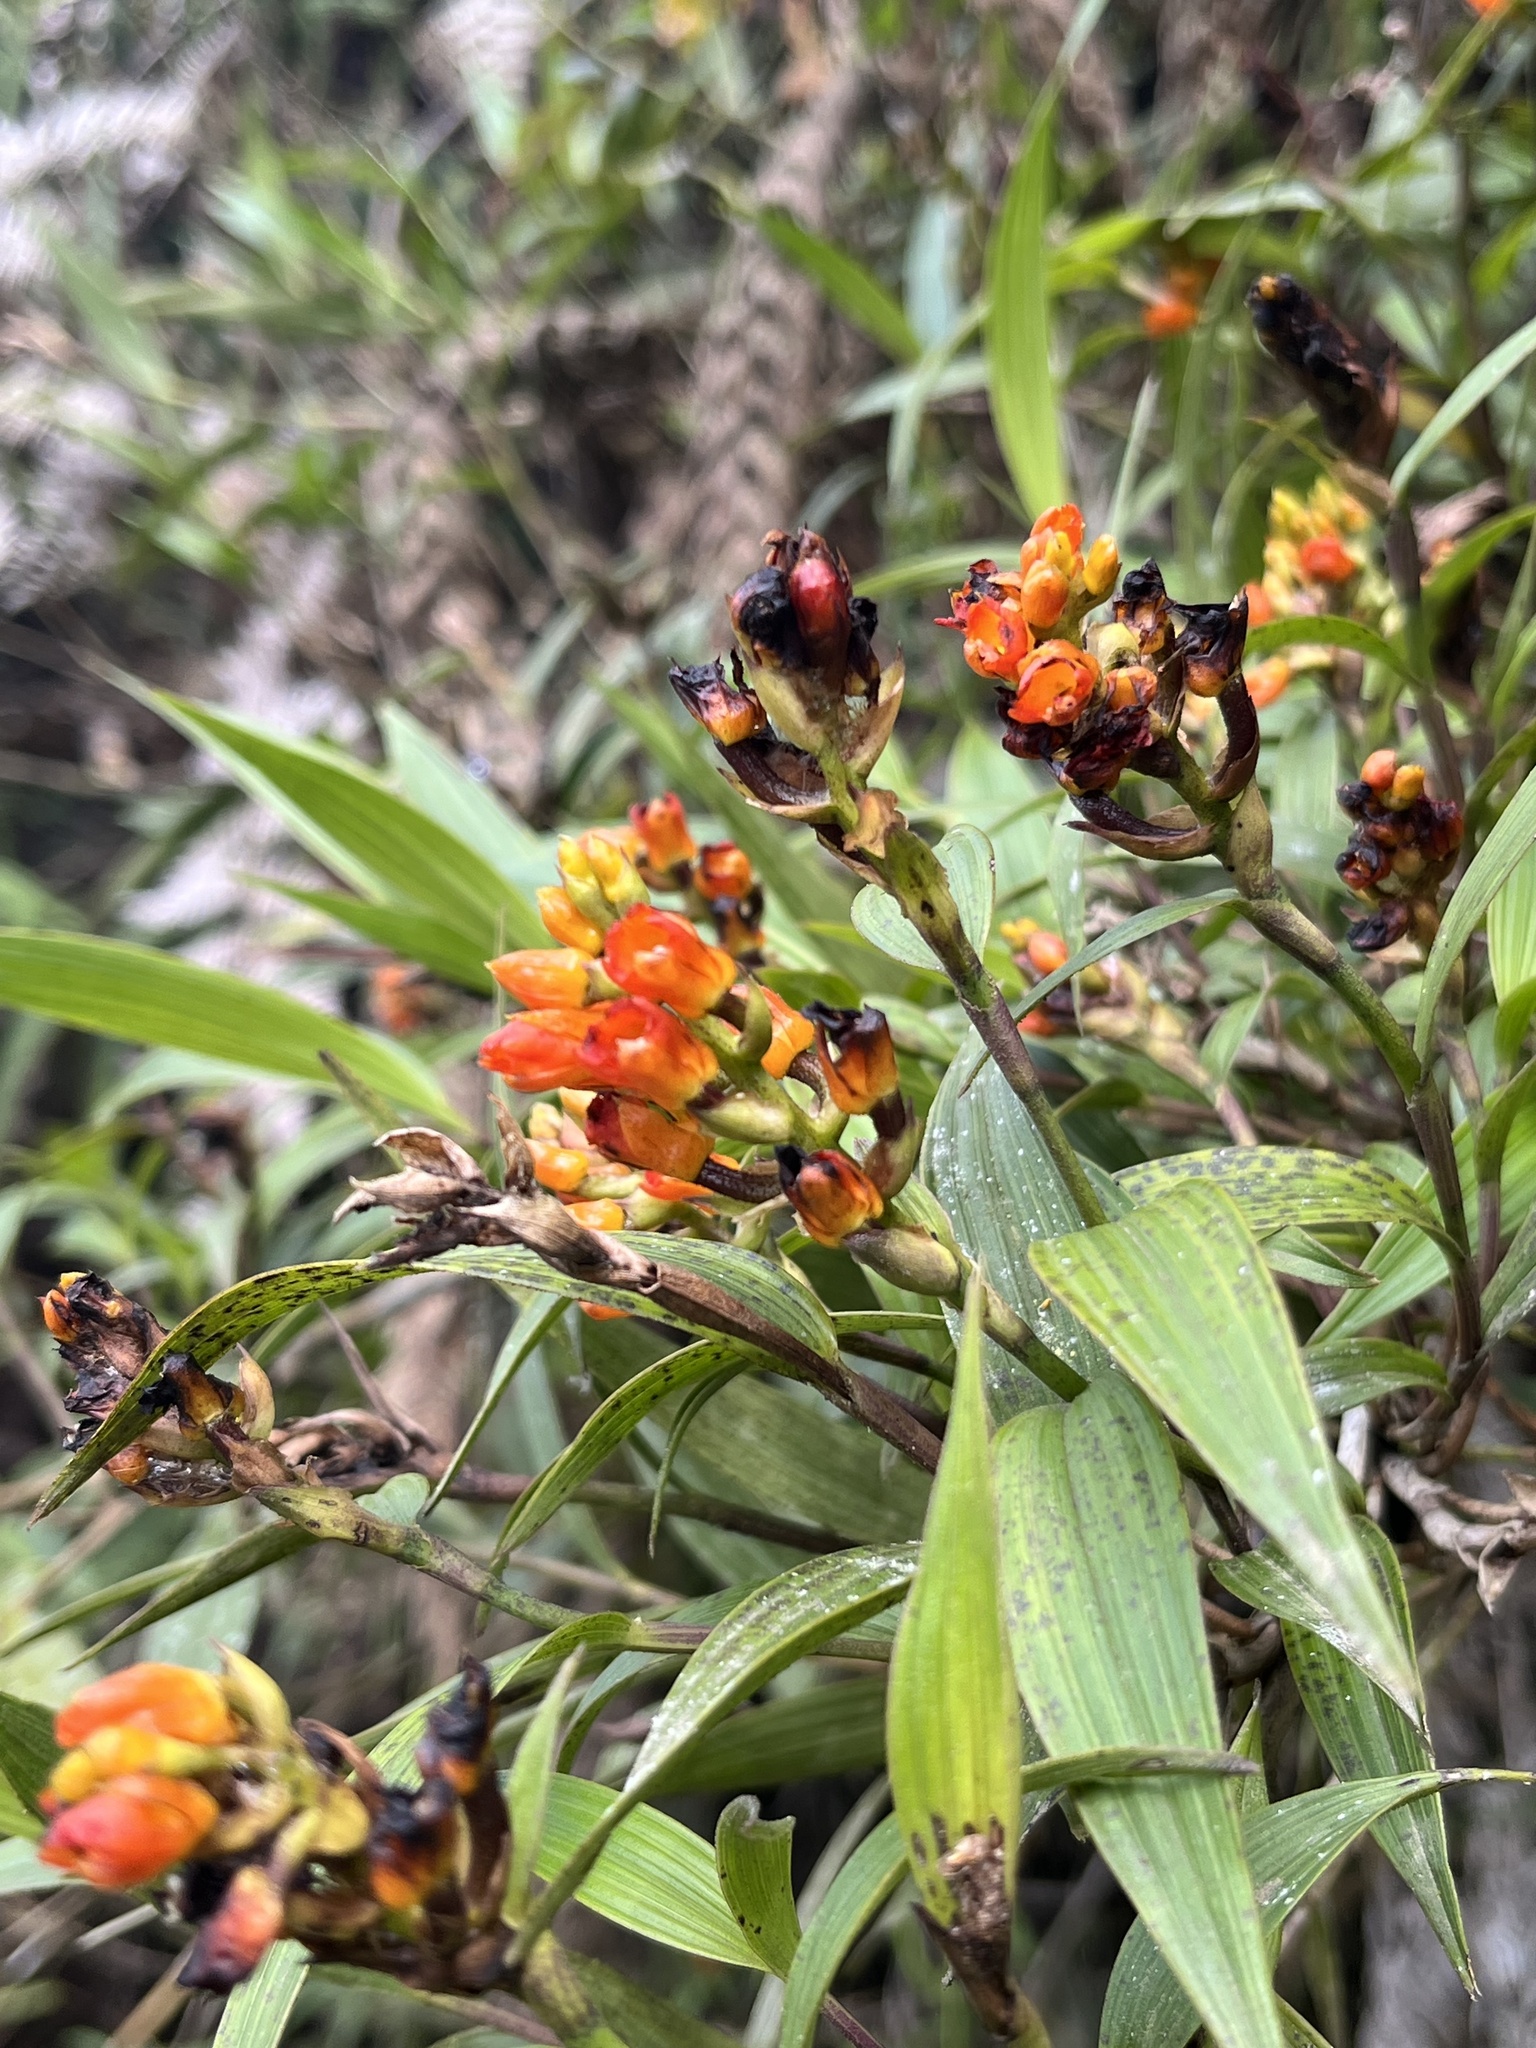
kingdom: Plantae
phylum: Tracheophyta
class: Liliopsida
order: Asparagales
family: Orchidaceae
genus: Elleanthus
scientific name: Elleanthus aurantiacus
